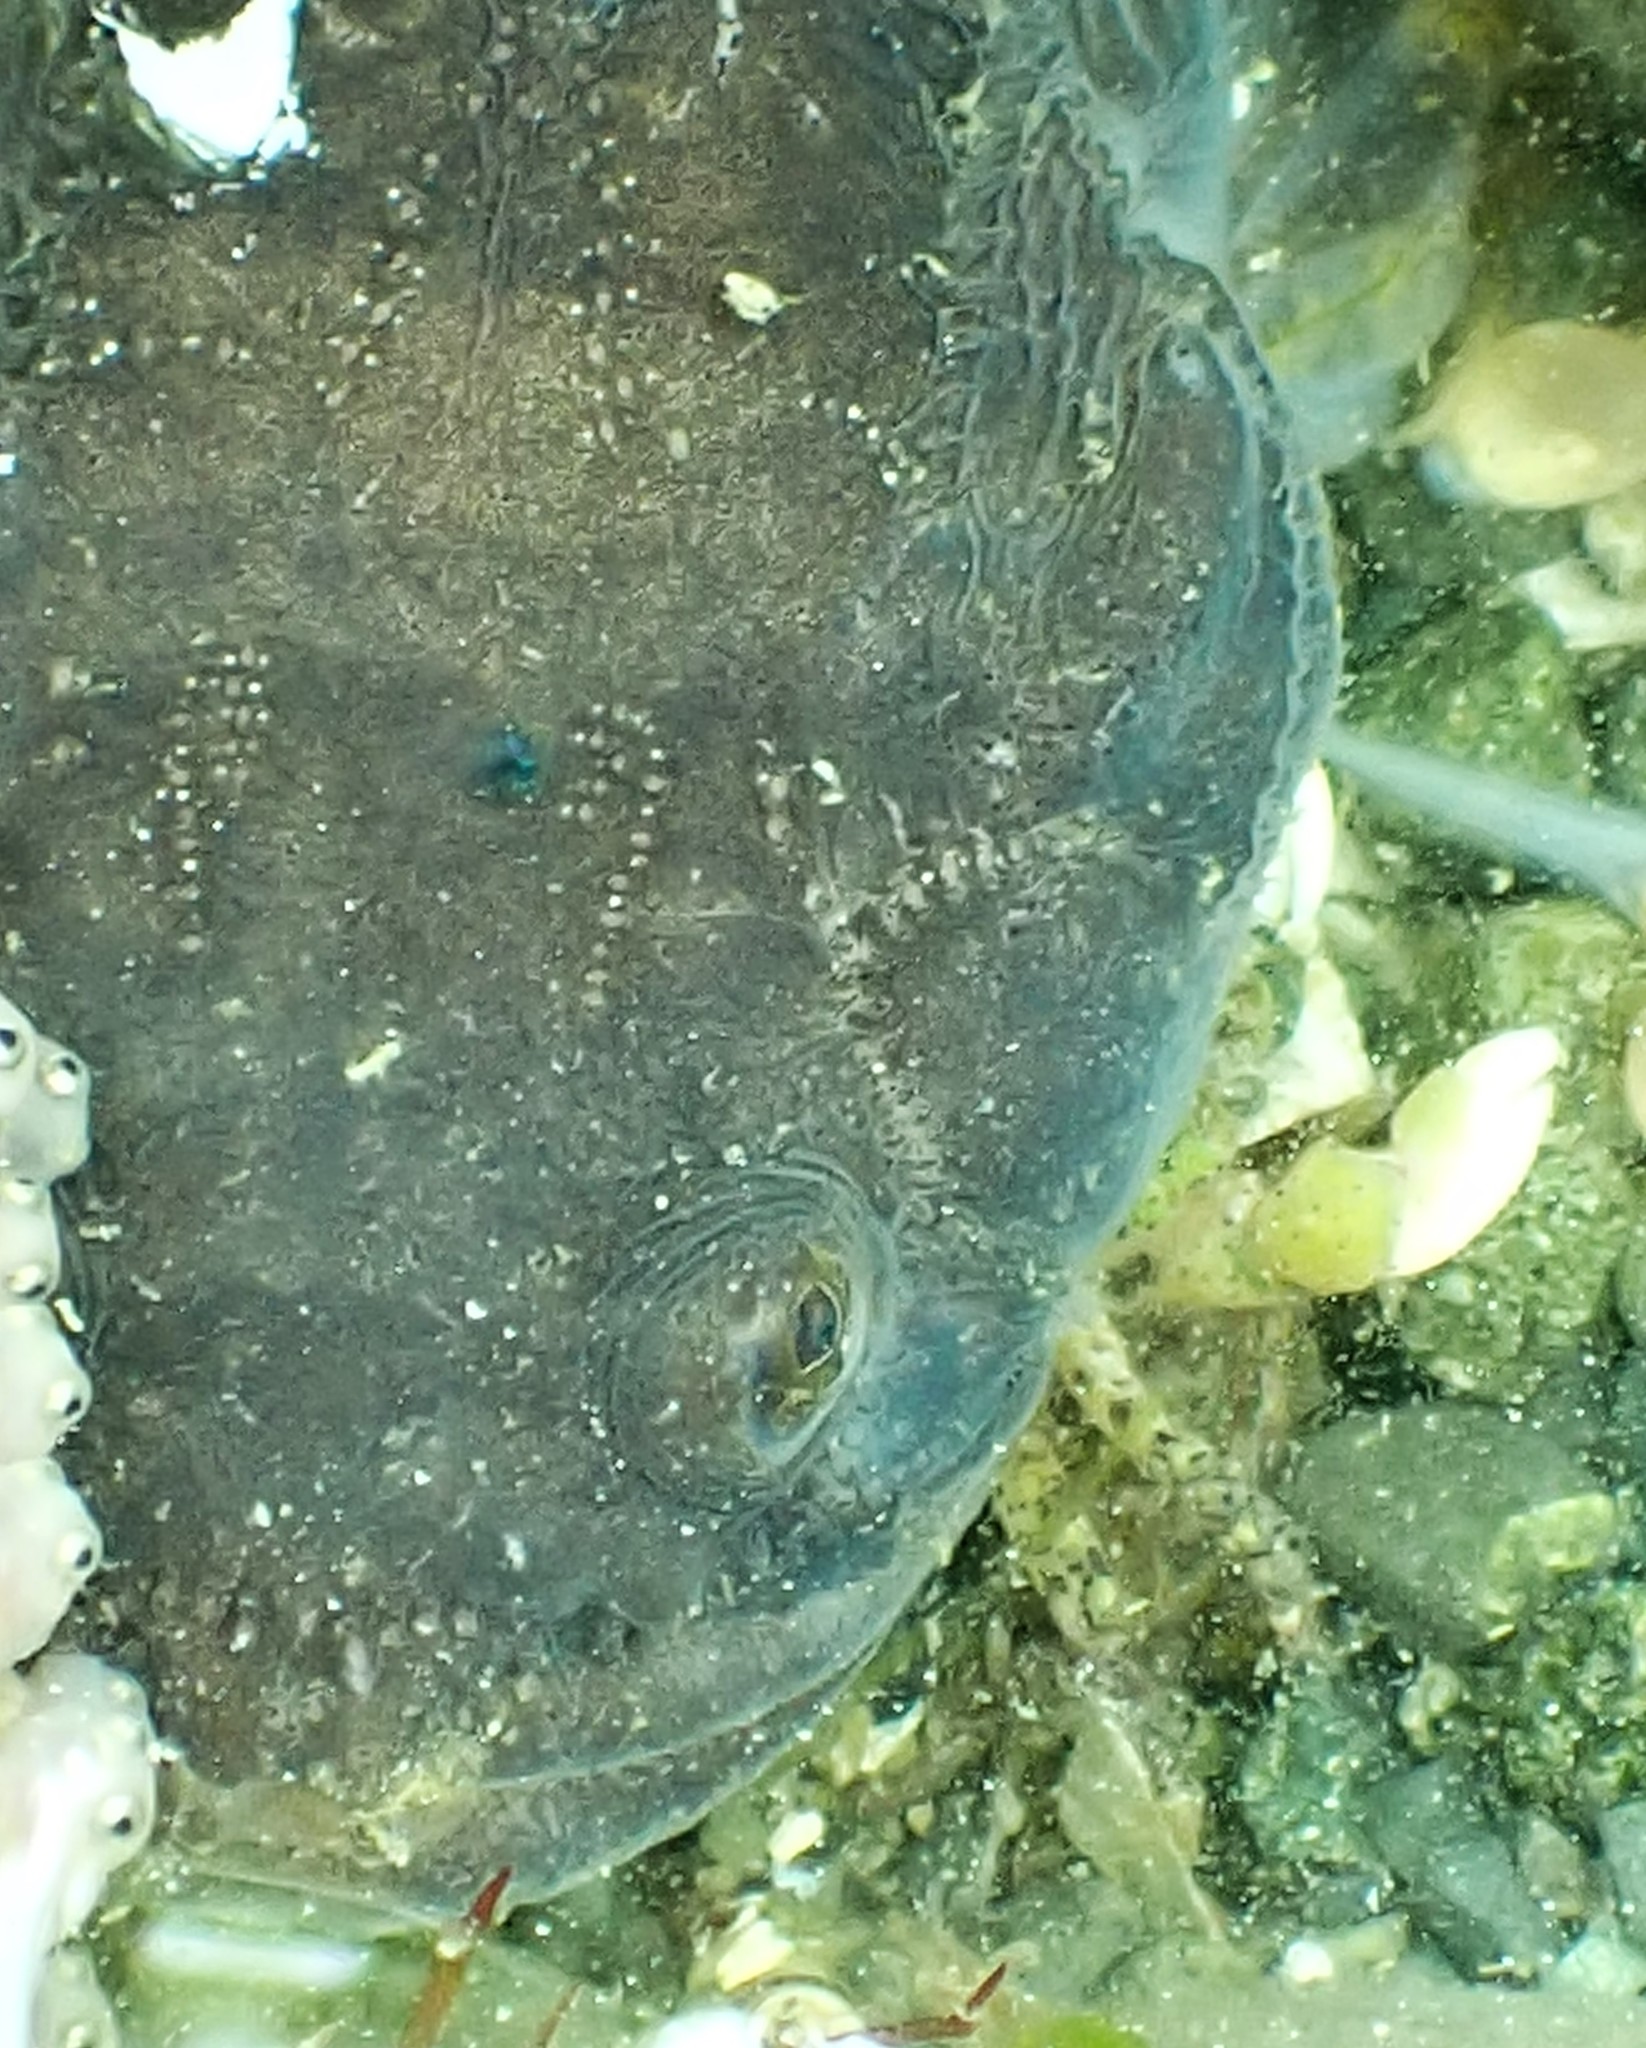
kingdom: Animalia
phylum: Chordata
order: Batrachoidiformes
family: Batrachoididae
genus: Porichthys
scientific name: Porichthys notatus
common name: Plainfin midshipman
